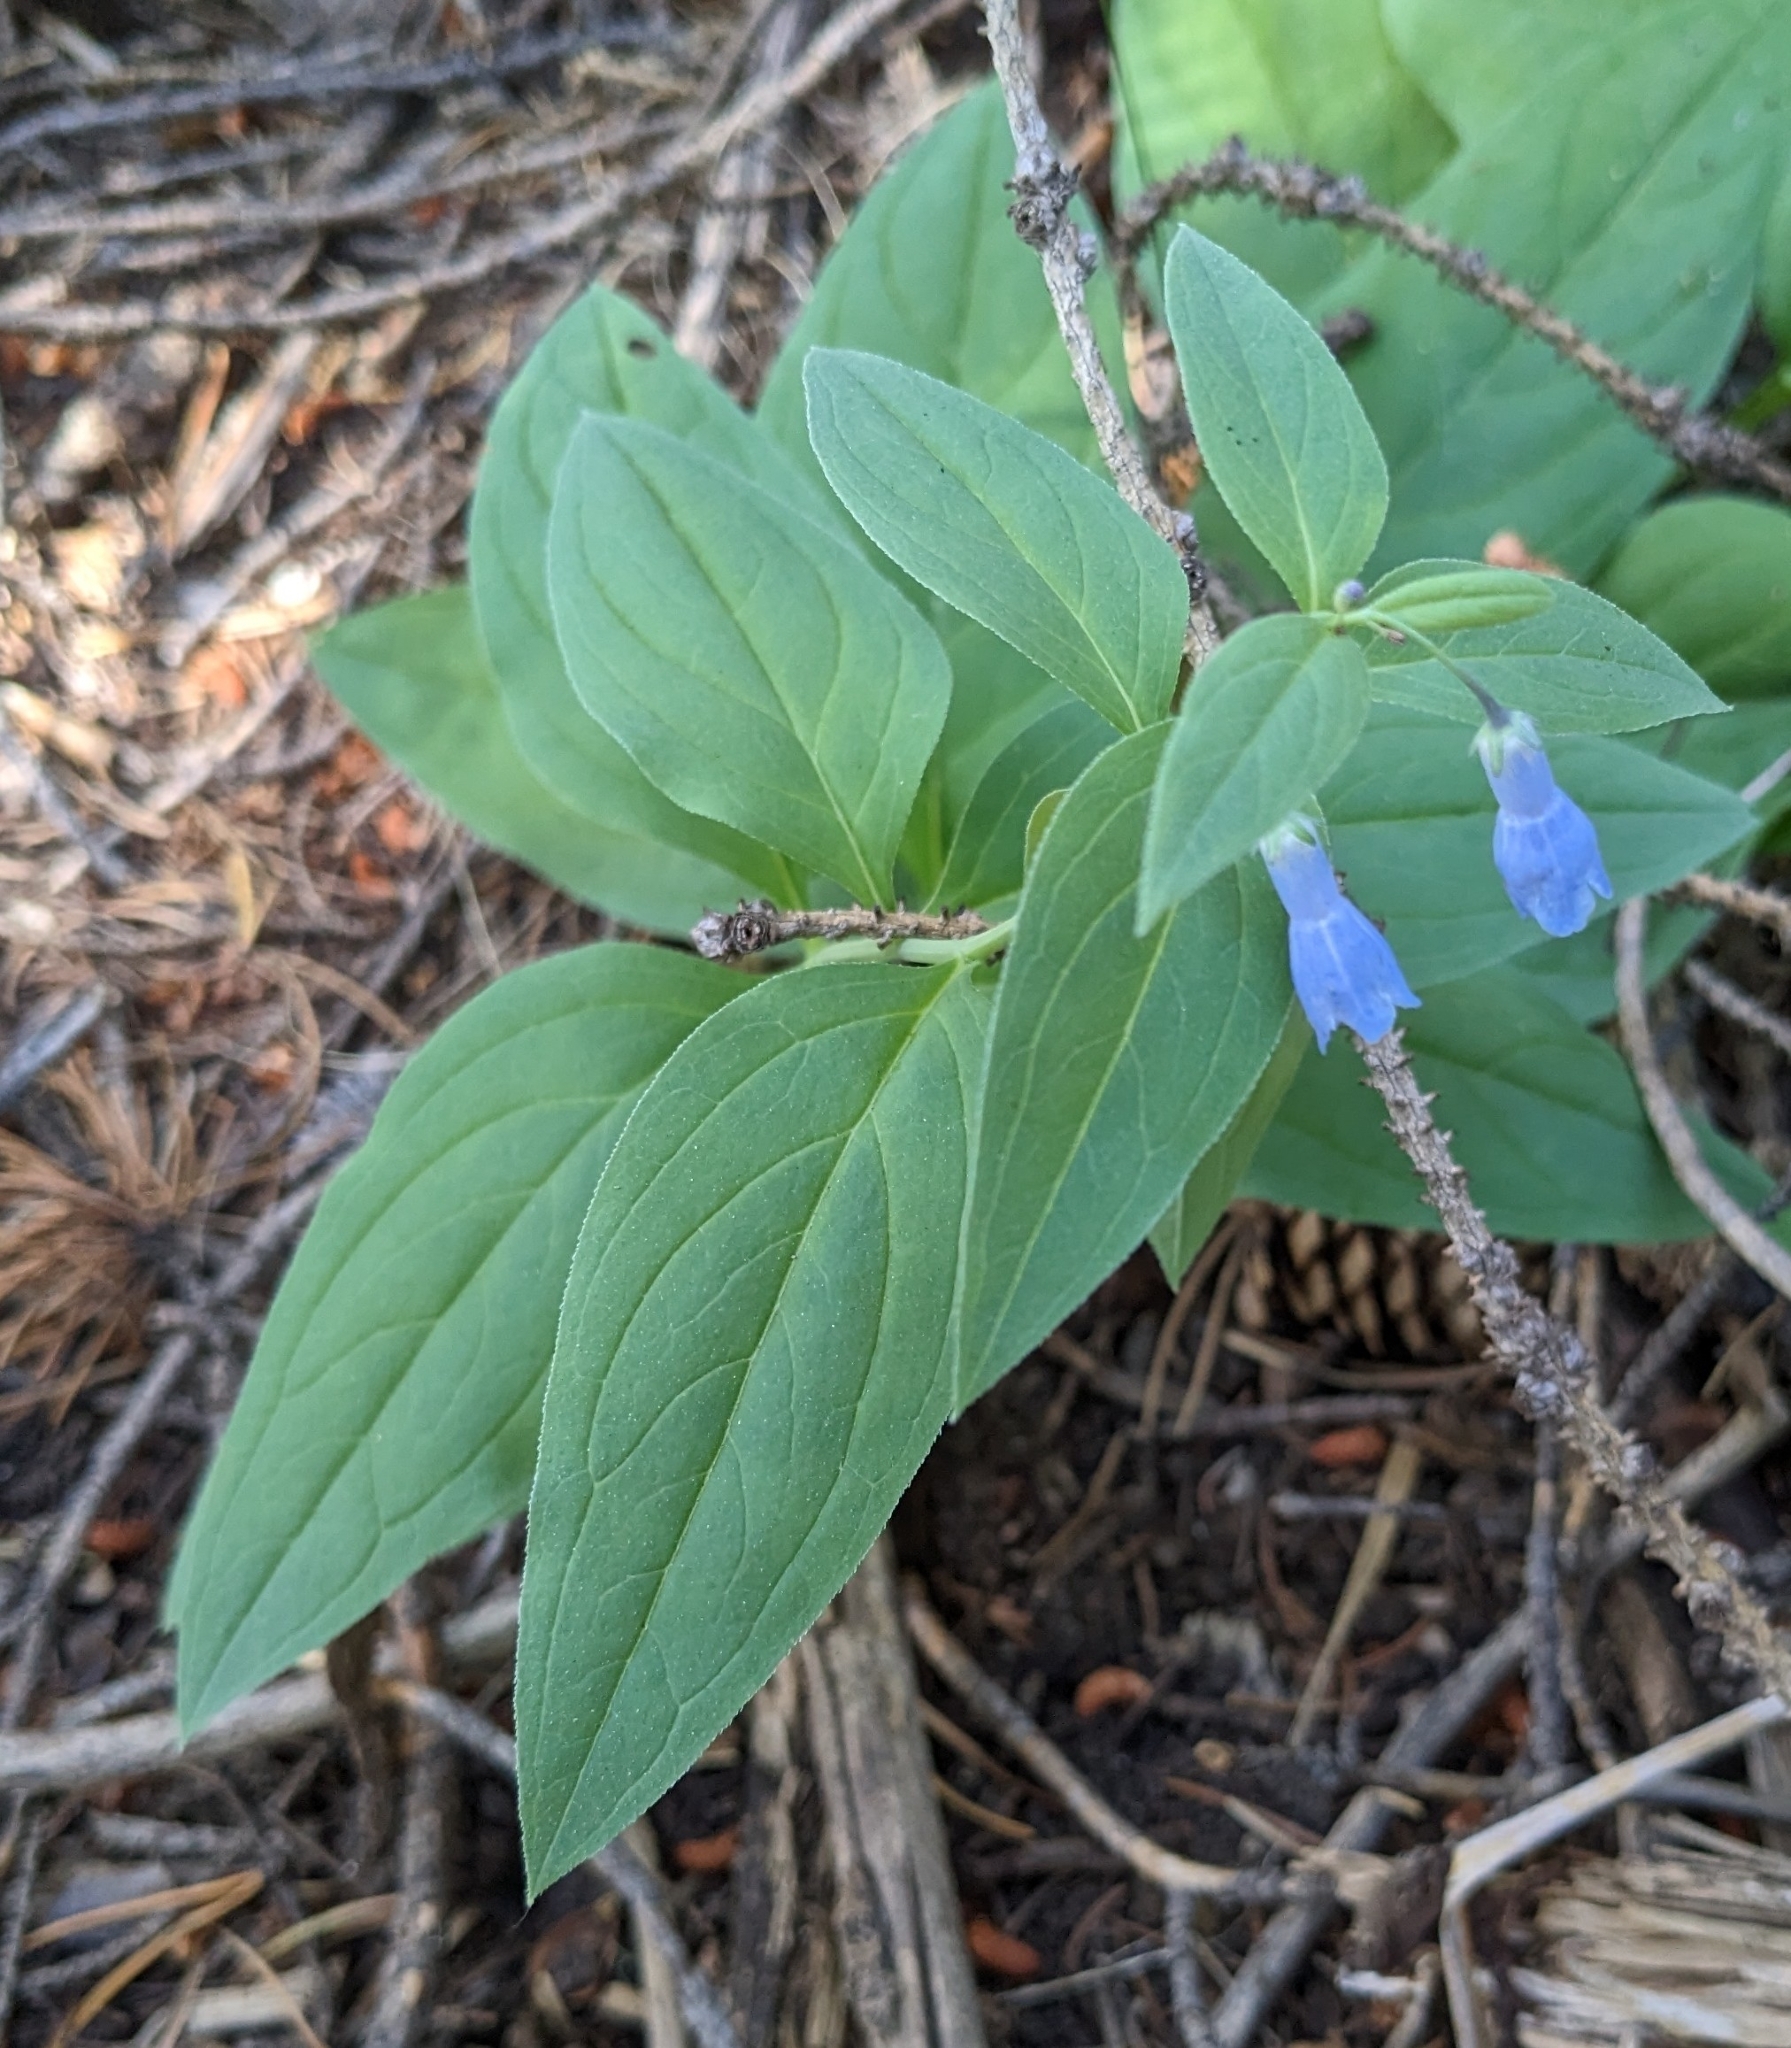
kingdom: Plantae
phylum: Tracheophyta
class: Magnoliopsida
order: Boraginales
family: Boraginaceae
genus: Mertensia
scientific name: Mertensia ciliata
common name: Tall chiming-bells
